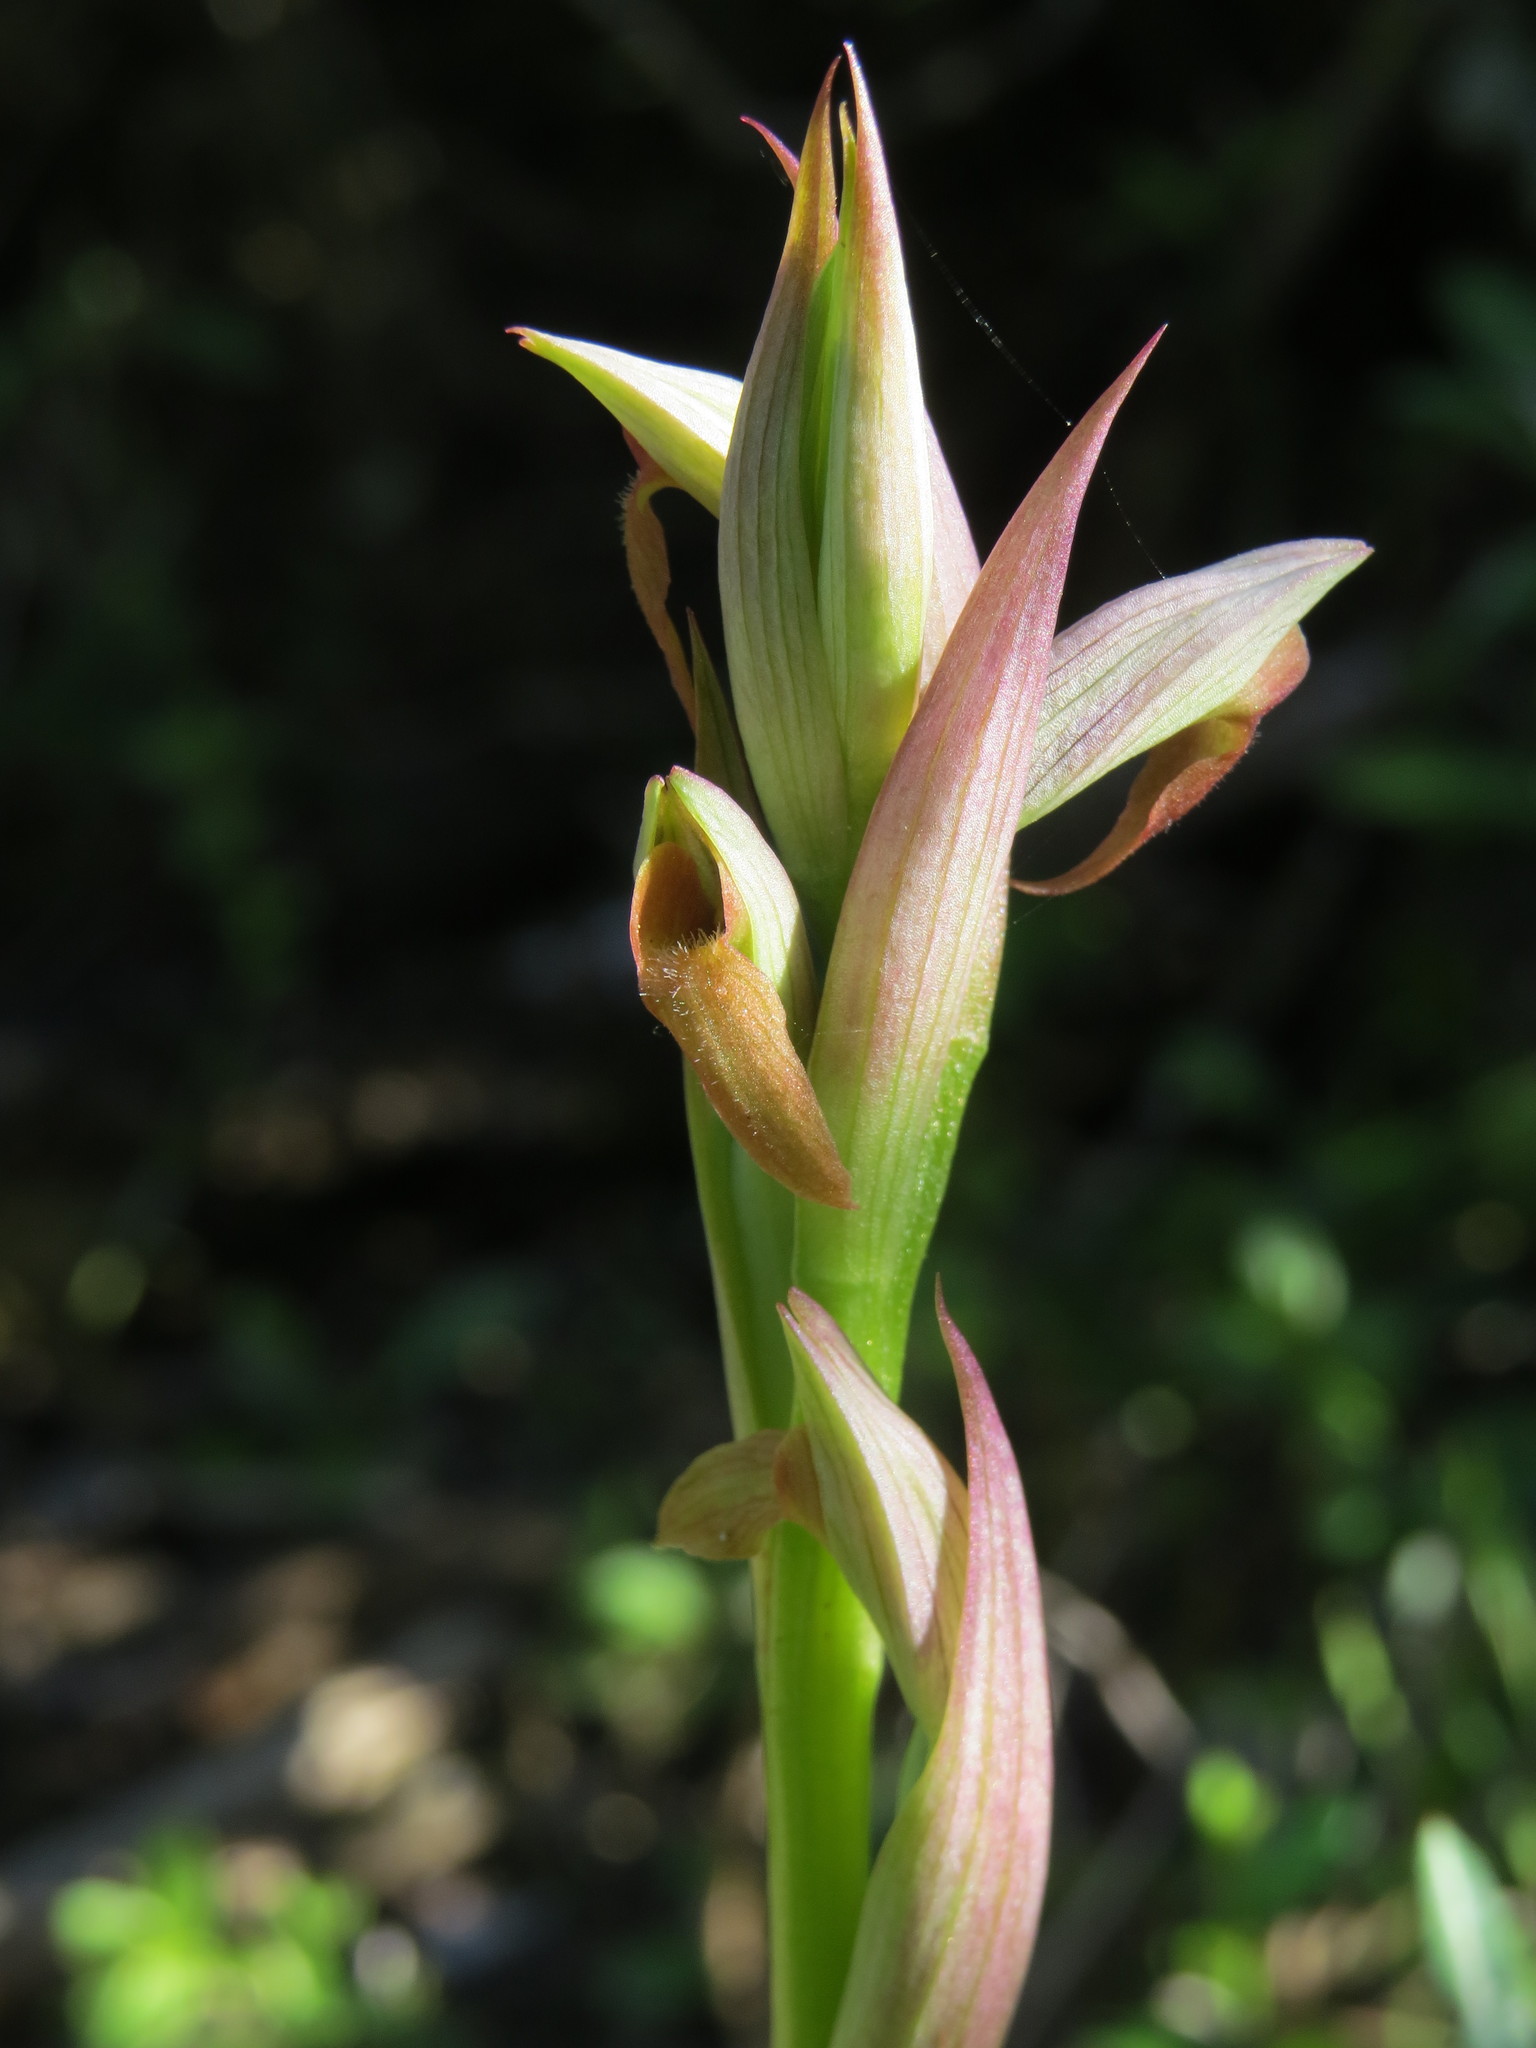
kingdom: Plantae
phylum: Tracheophyta
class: Liliopsida
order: Asparagales
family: Orchidaceae
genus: Serapias
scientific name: Serapias parviflora
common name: Small-flowered tongue-orchid
